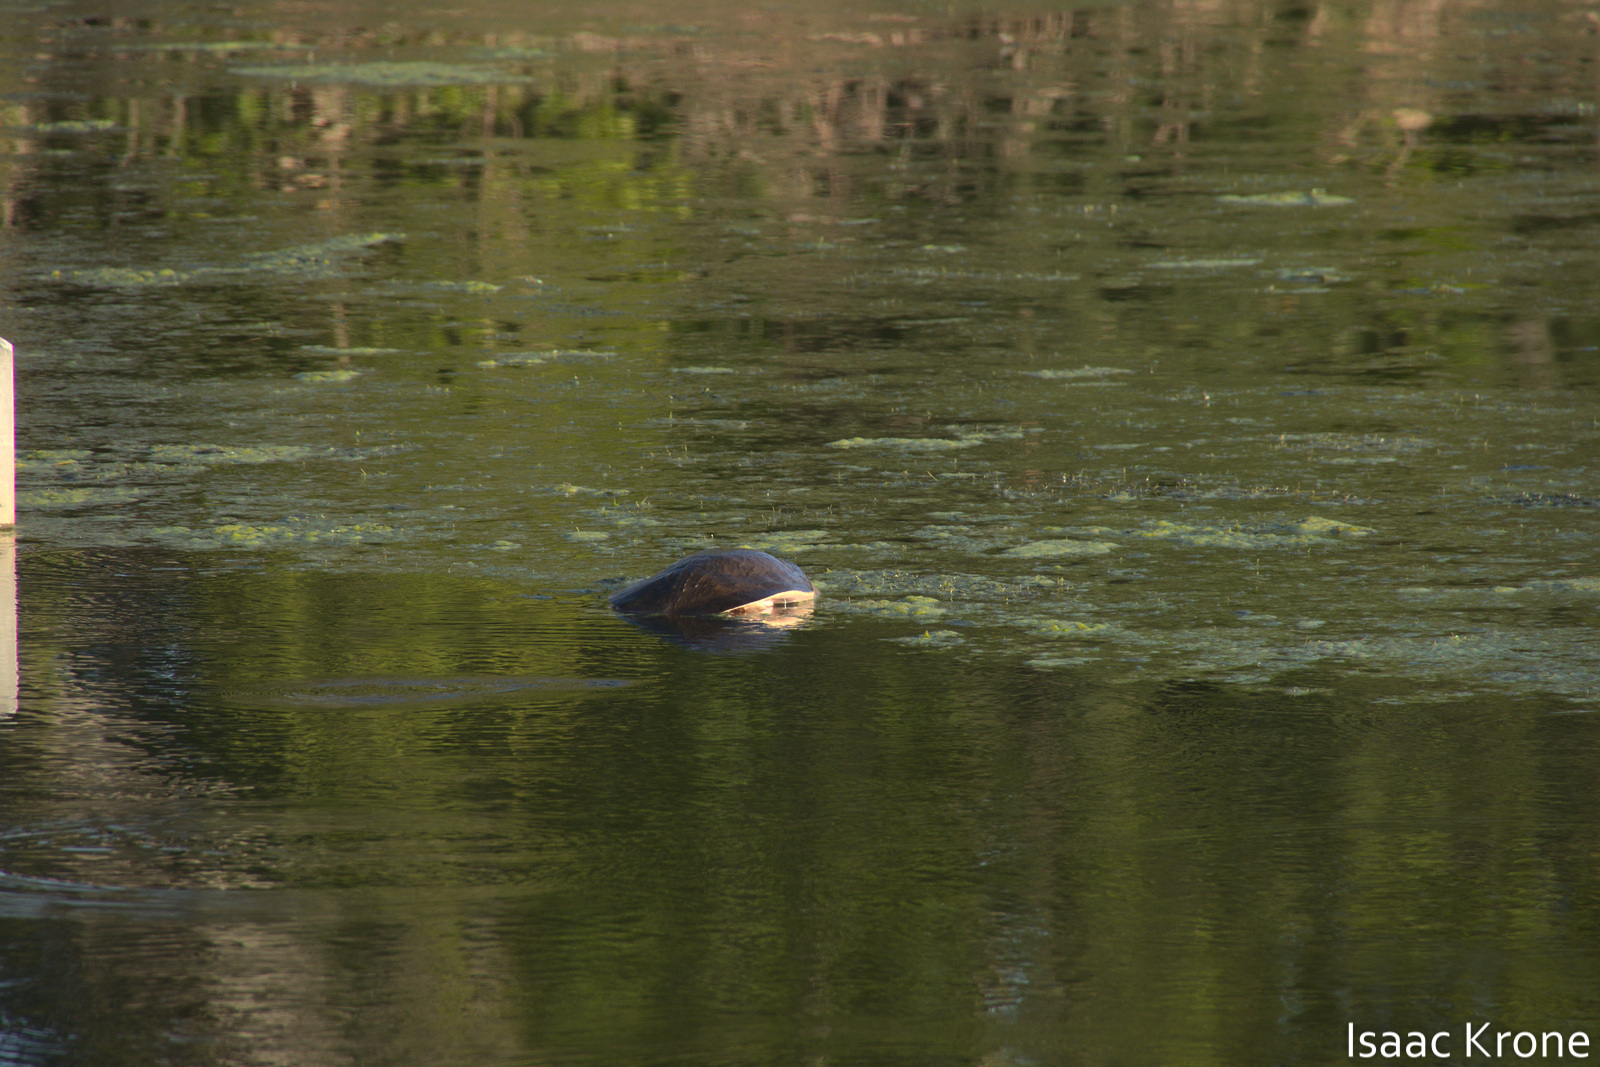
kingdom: Animalia
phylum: Chordata
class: Testudines
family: Trionychidae
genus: Apalone
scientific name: Apalone ferox
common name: Florida softshell turtle
